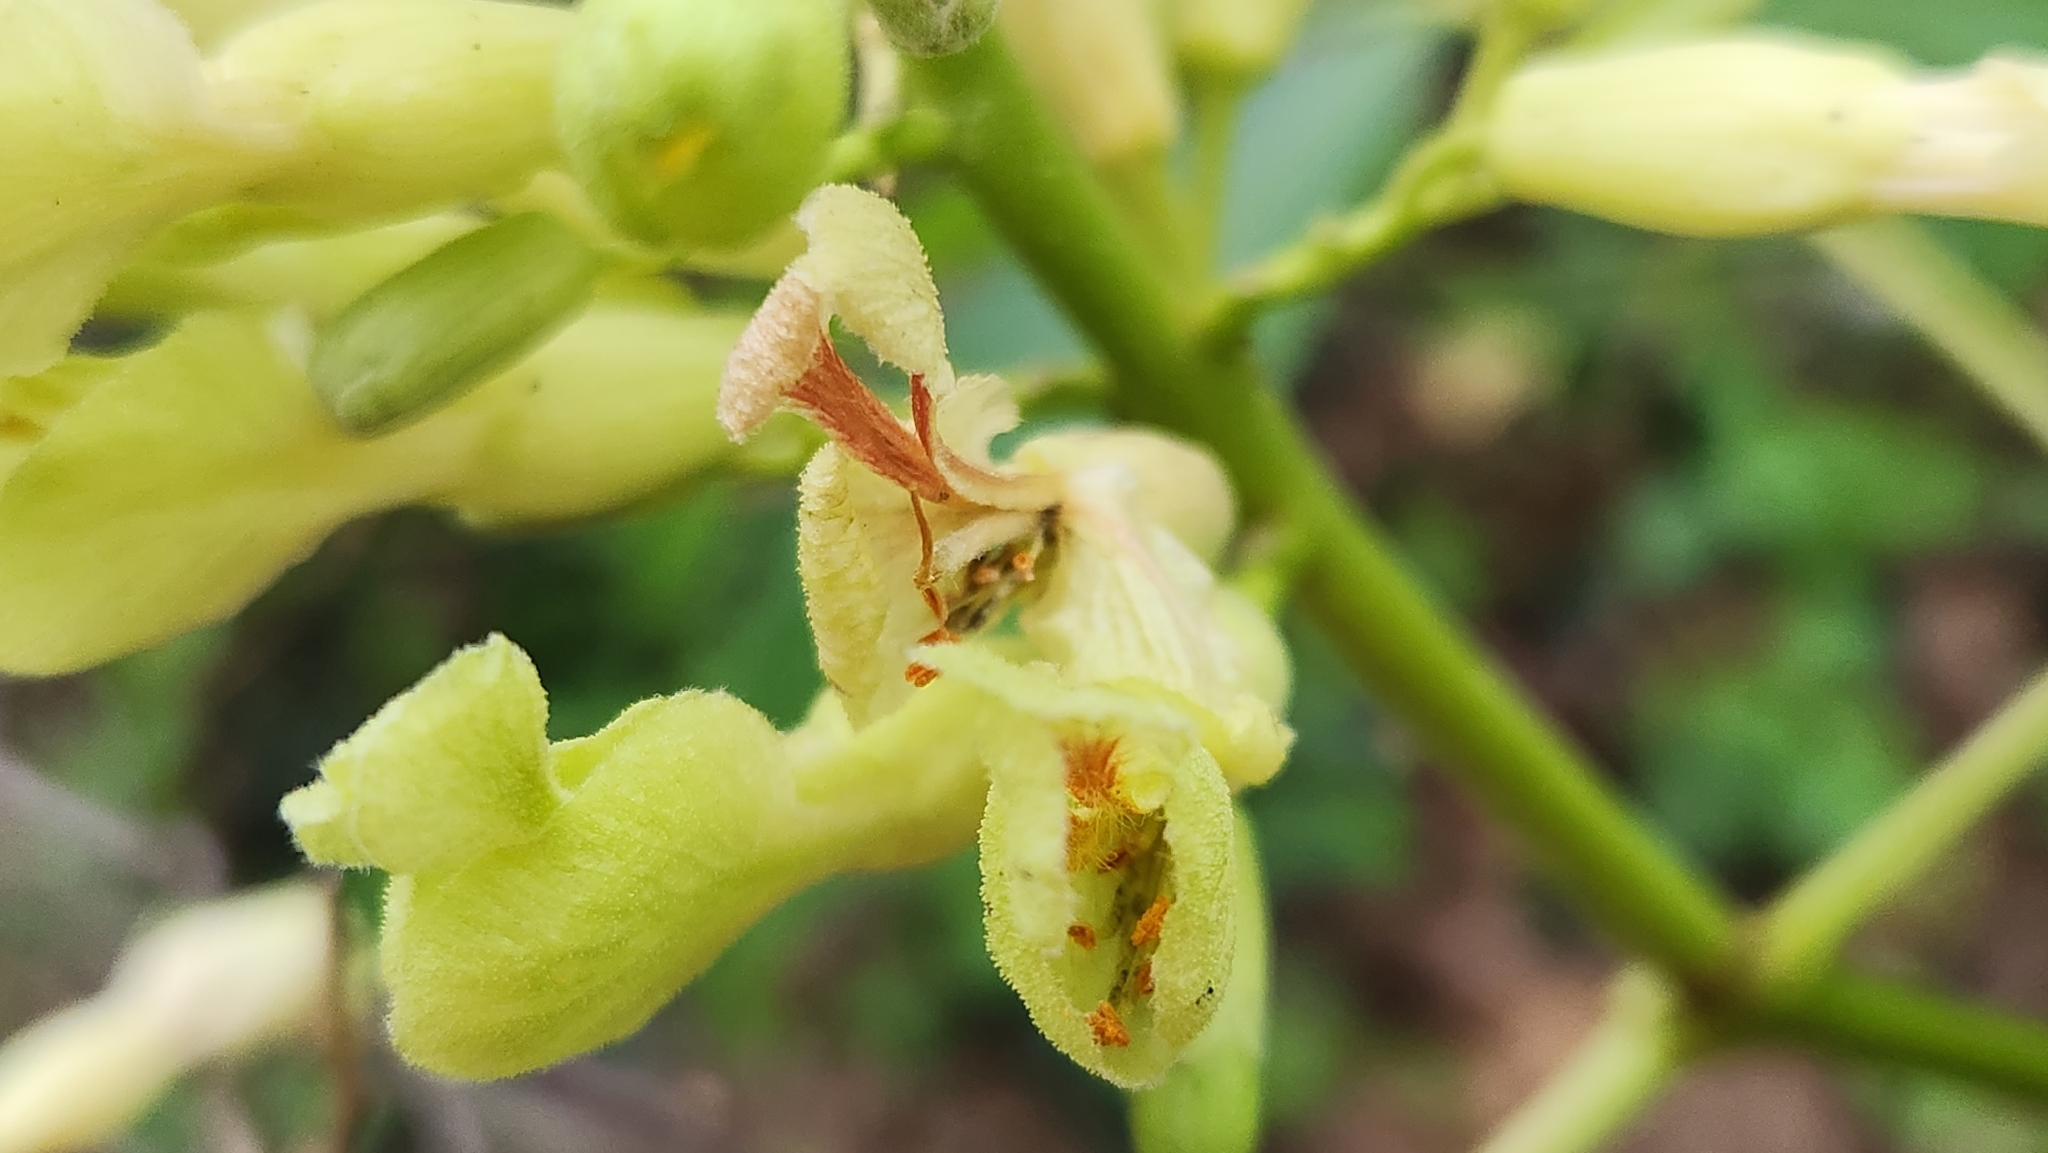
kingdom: Plantae
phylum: Tracheophyta
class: Magnoliopsida
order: Sapindales
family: Sapindaceae
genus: Aesculus
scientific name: Aesculus sylvatica
